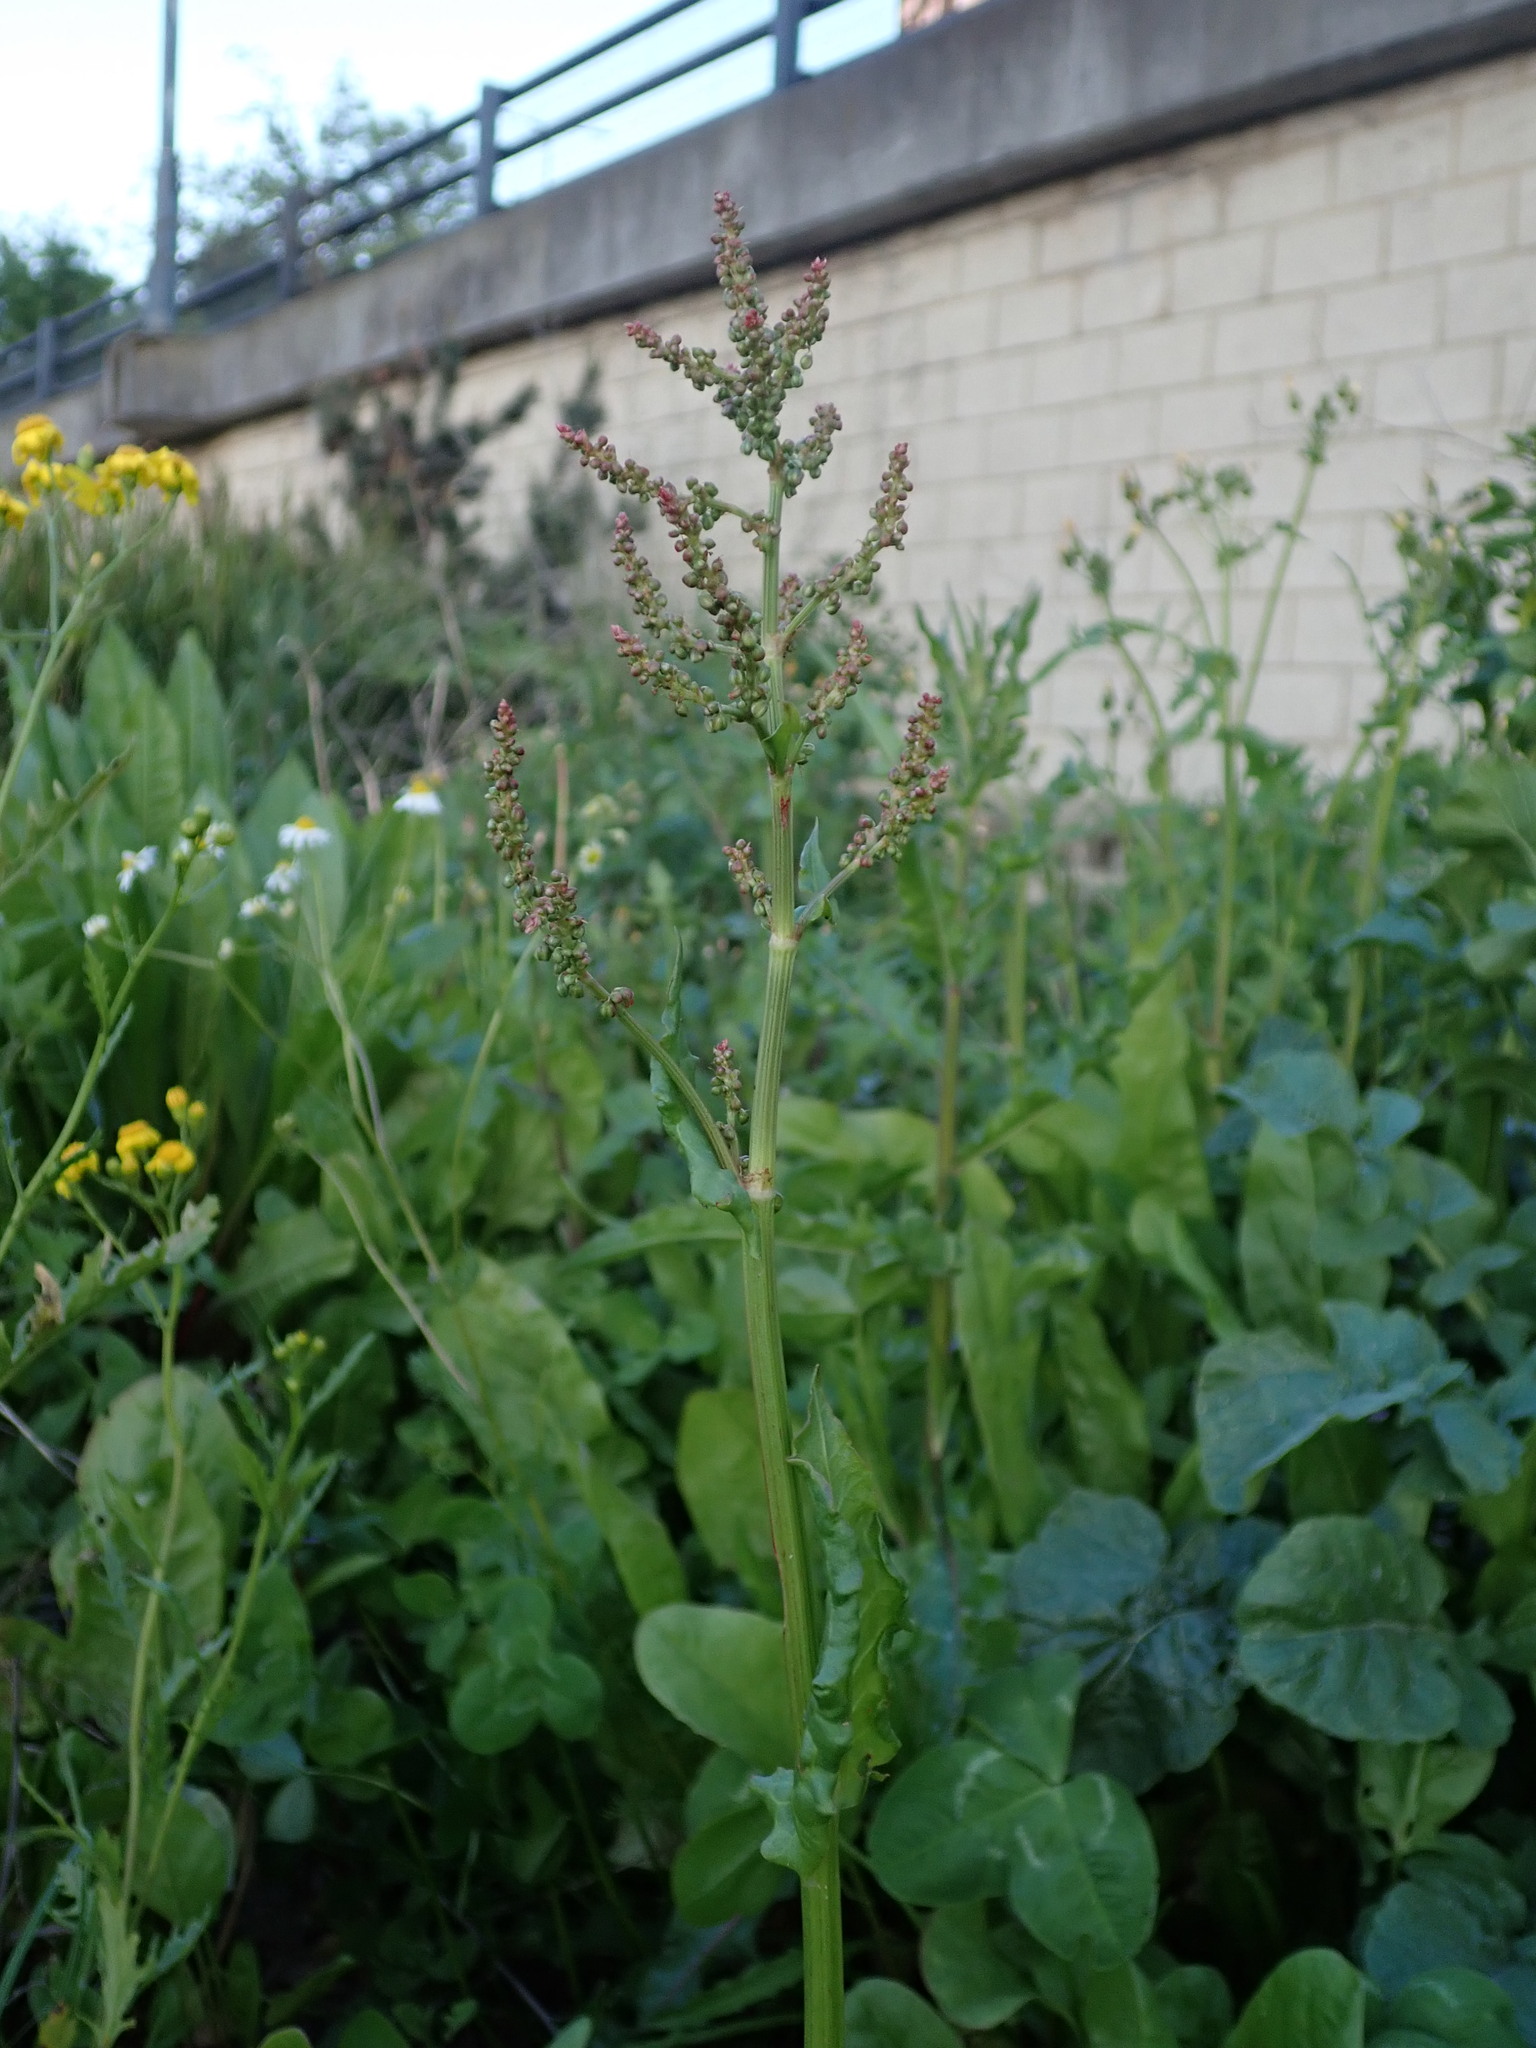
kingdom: Plantae
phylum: Tracheophyta
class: Magnoliopsida
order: Caryophyllales
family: Polygonaceae
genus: Rumex
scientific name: Rumex acetosa
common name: Garden sorrel
